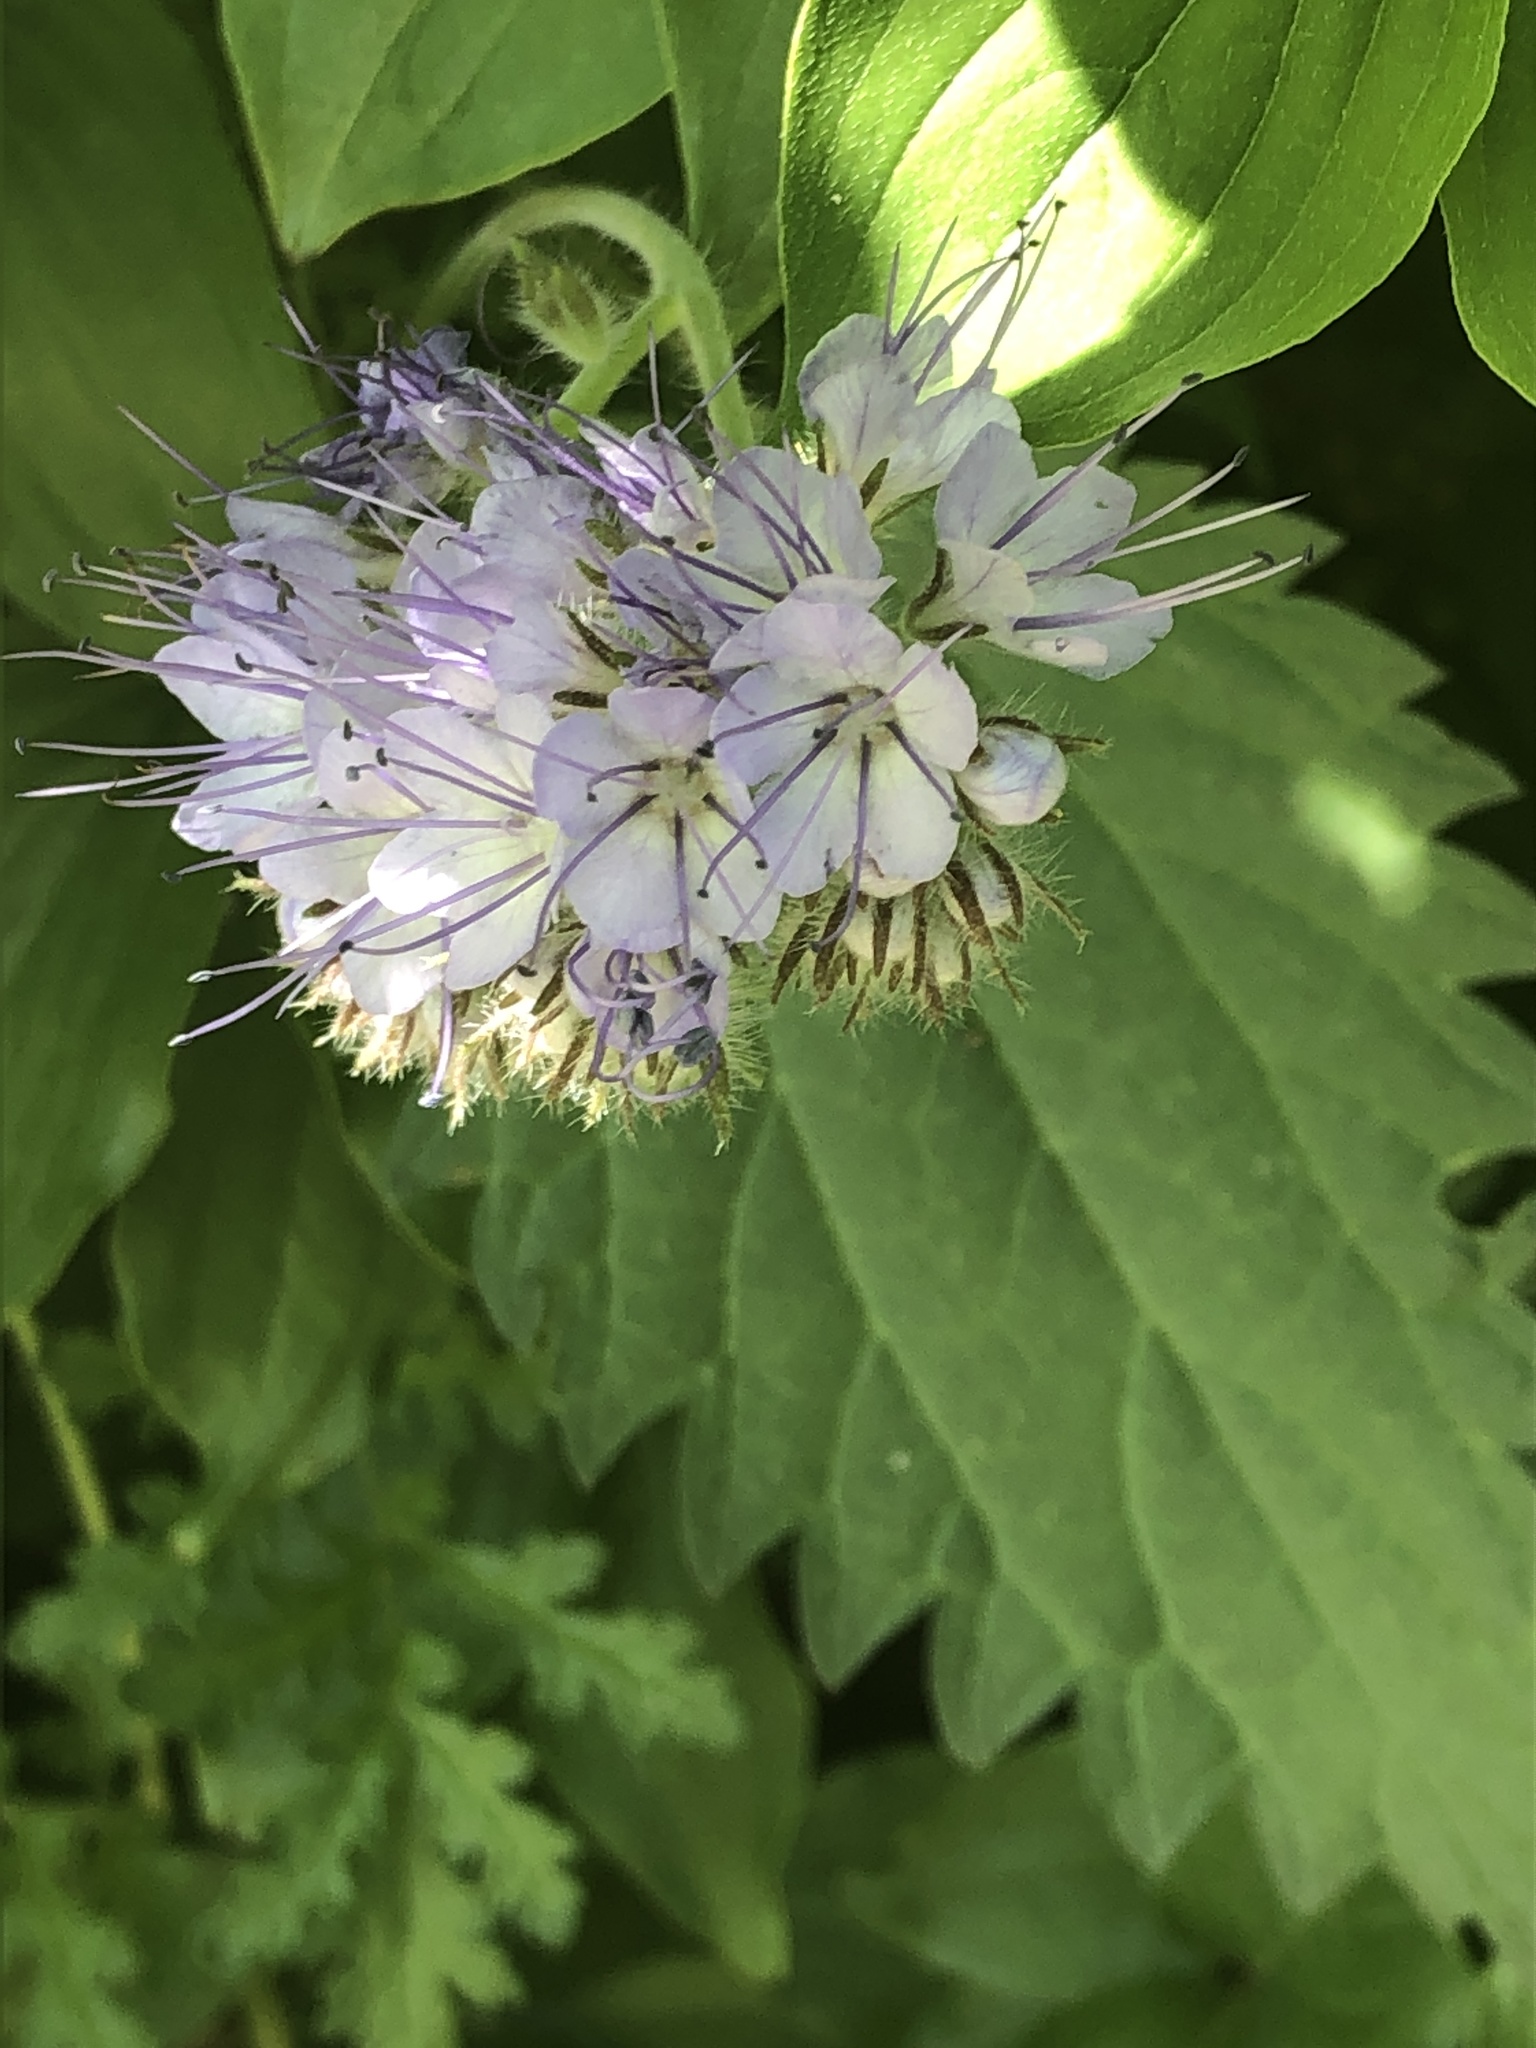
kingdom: Plantae
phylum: Tracheophyta
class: Magnoliopsida
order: Boraginales
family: Hydrophyllaceae
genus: Phacelia
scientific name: Phacelia tanacetifolia
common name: Phacelia
